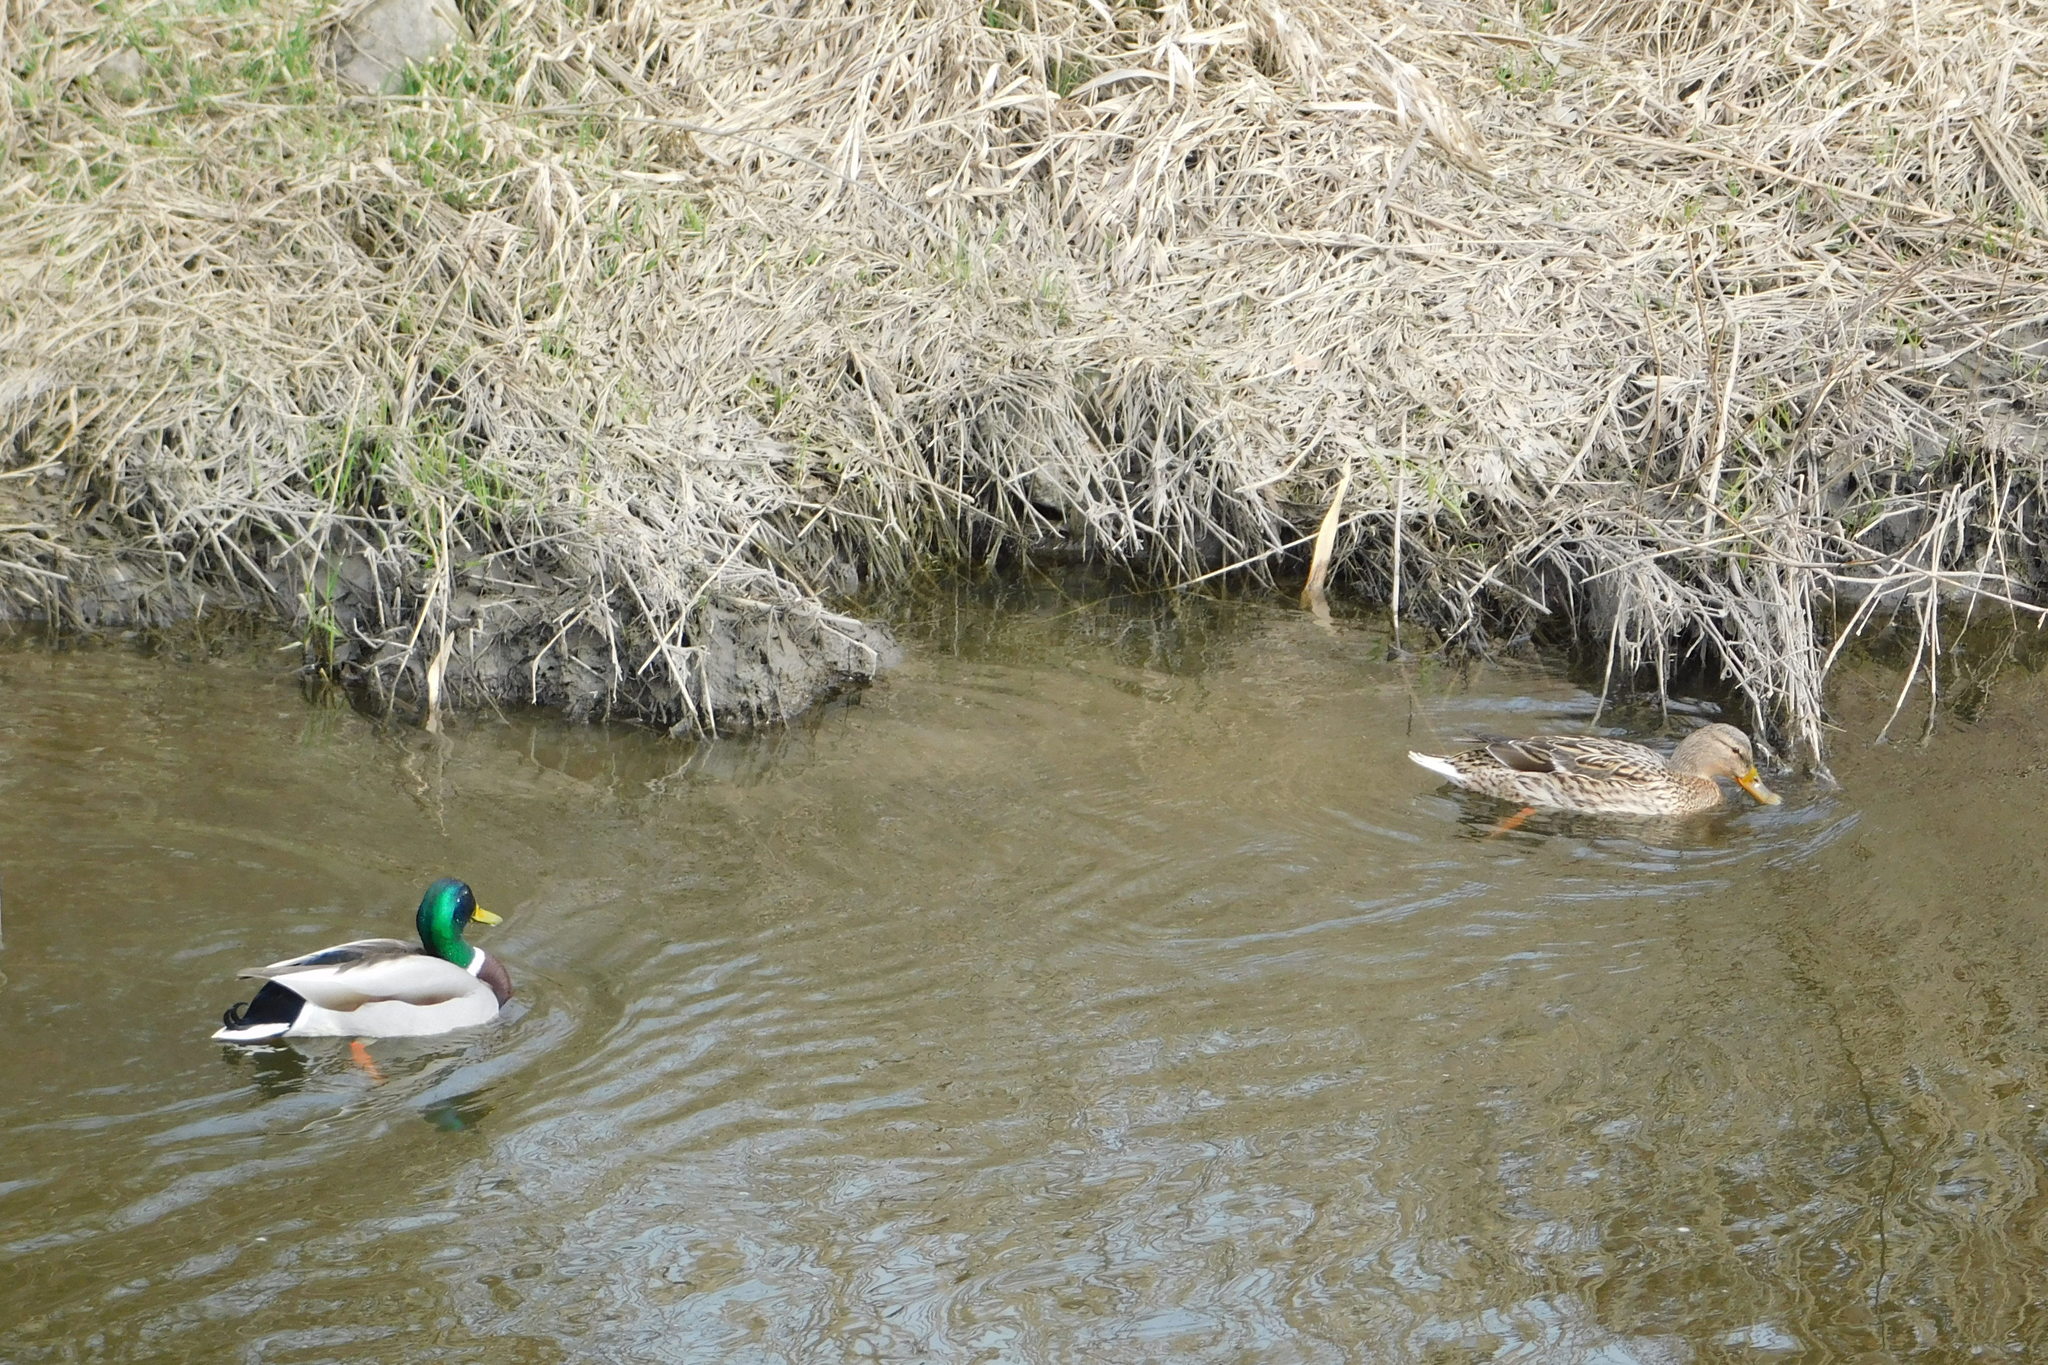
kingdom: Animalia
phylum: Chordata
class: Aves
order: Anseriformes
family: Anatidae
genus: Anas
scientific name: Anas platyrhynchos
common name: Mallard
